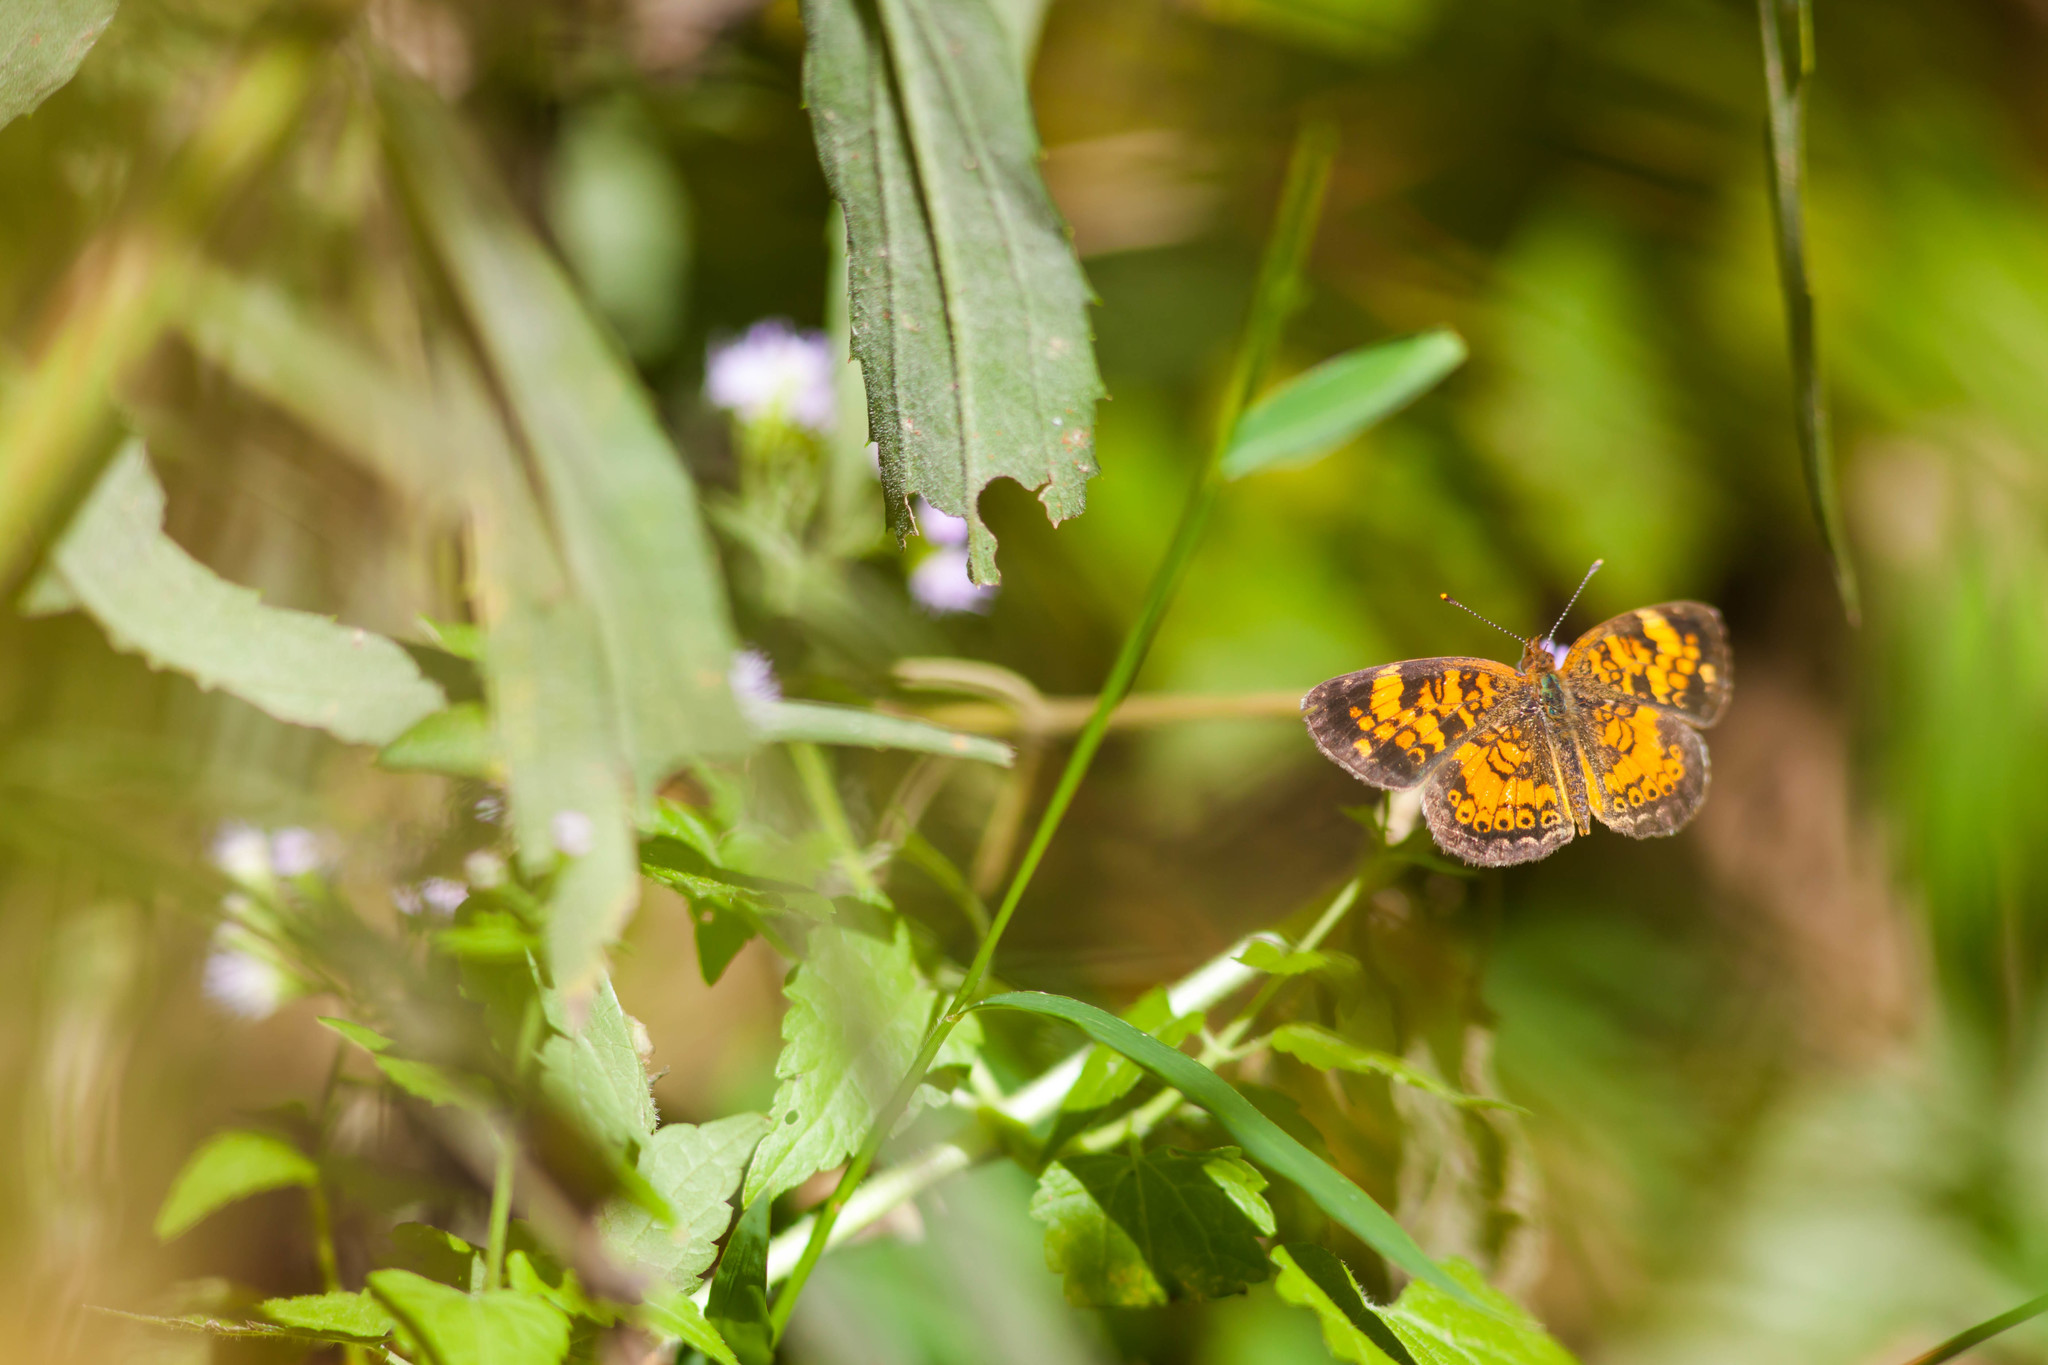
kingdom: Animalia
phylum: Arthropoda
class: Insecta
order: Lepidoptera
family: Nymphalidae
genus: Phyciodes
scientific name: Phyciodes tharos
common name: Pearl crescent
